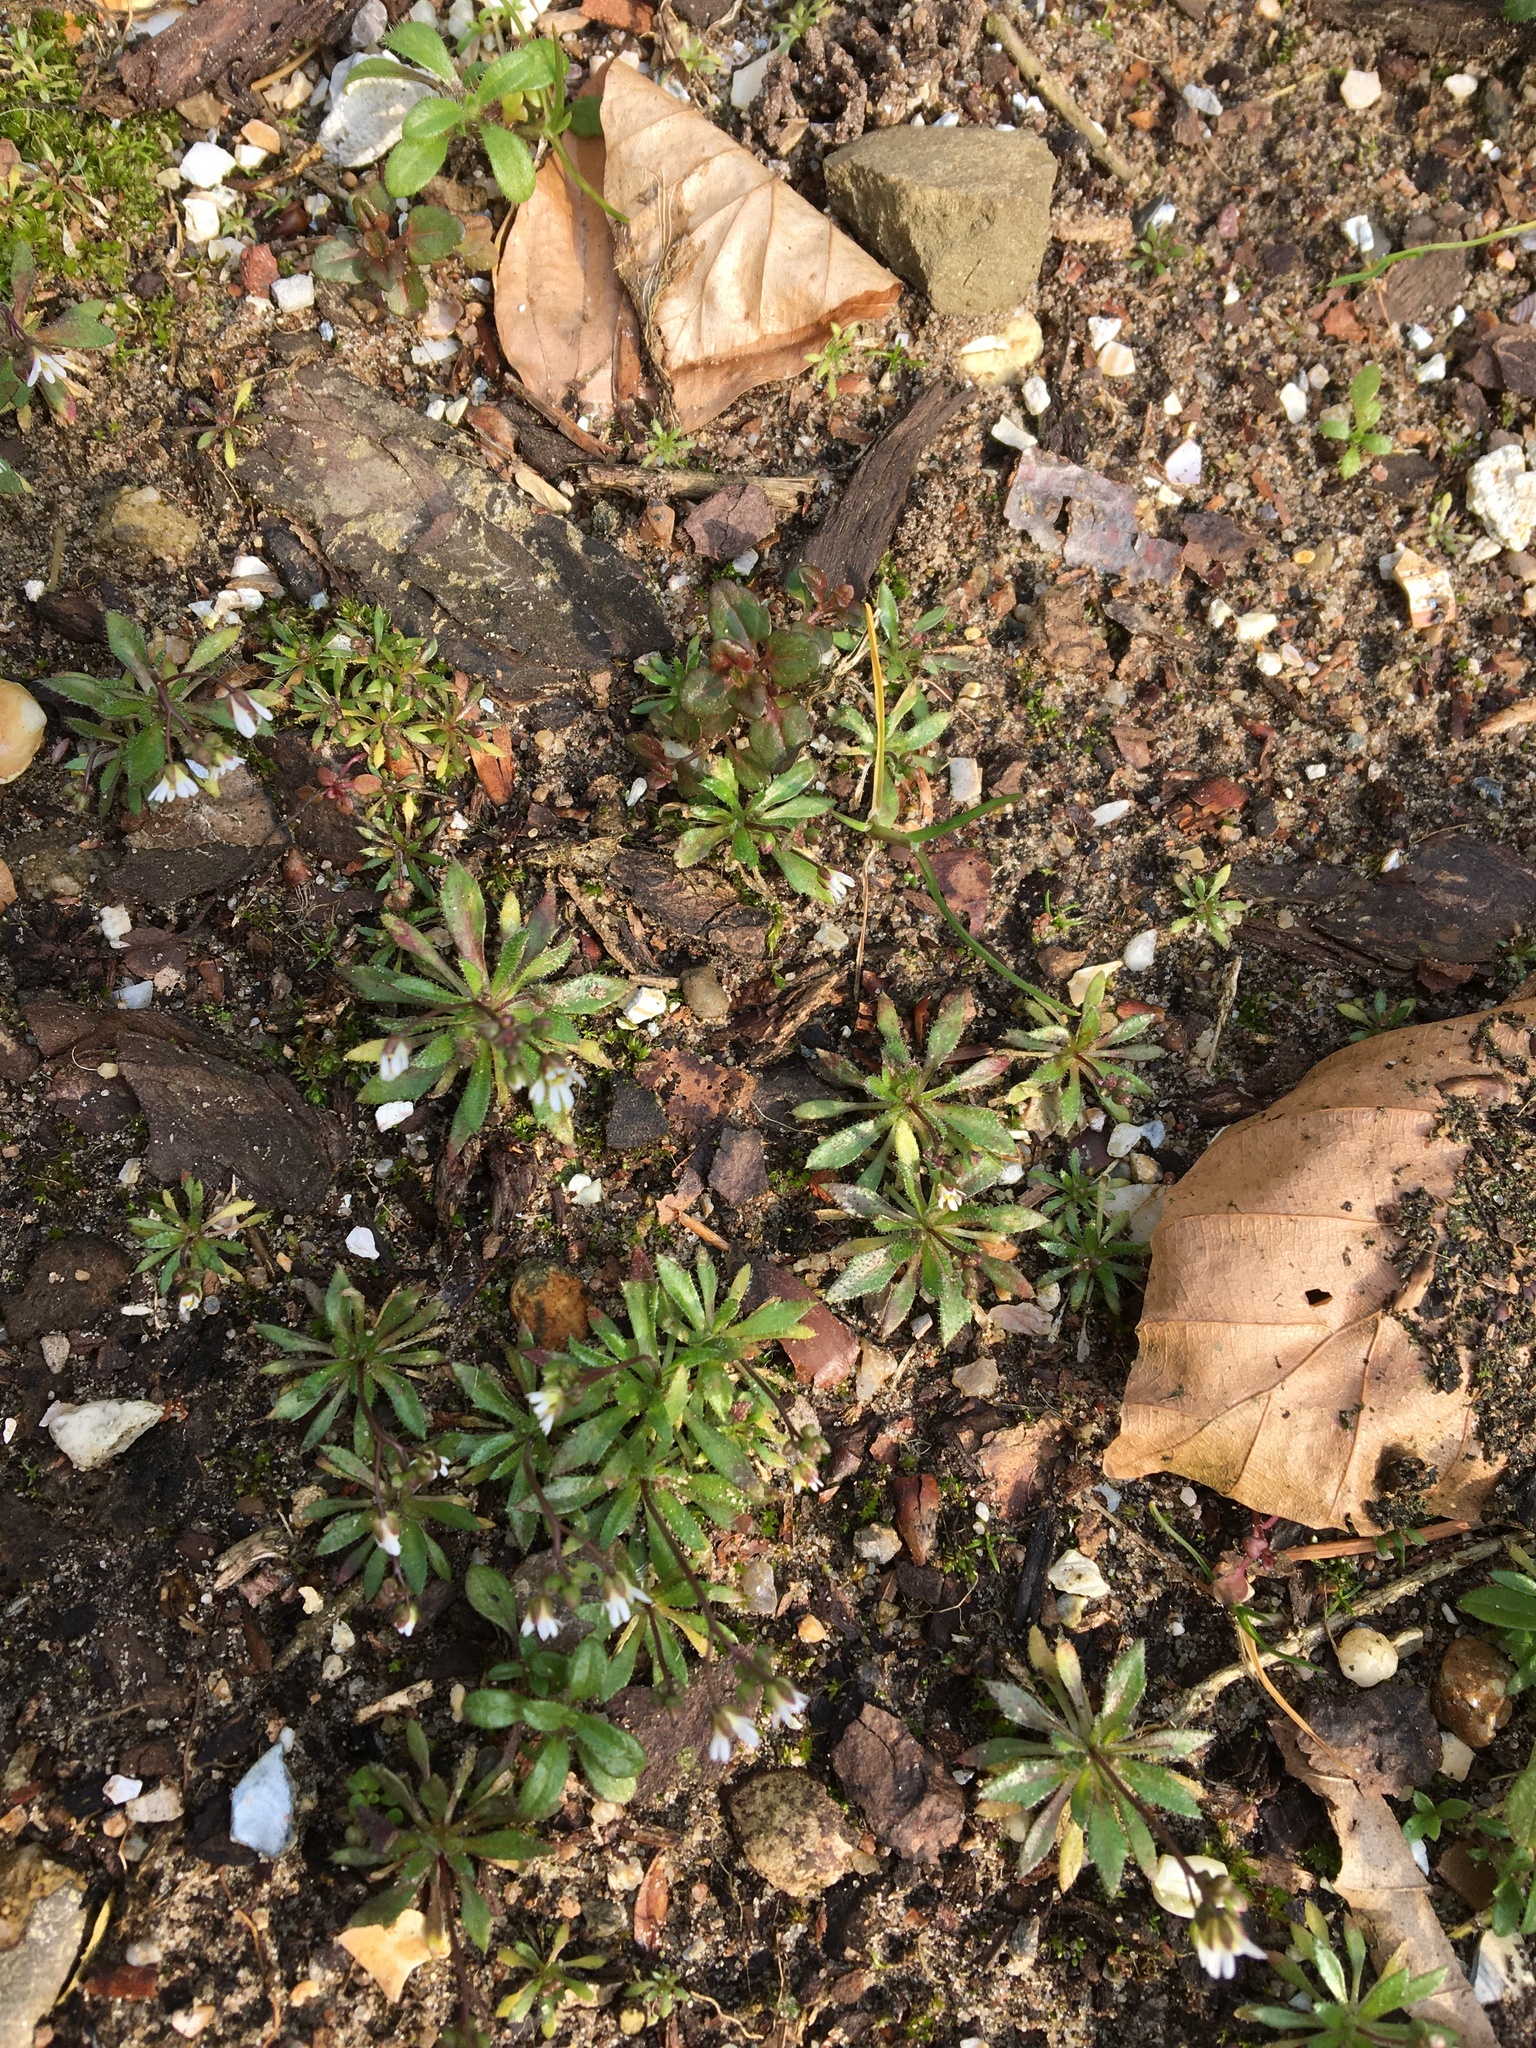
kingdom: Plantae
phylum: Tracheophyta
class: Magnoliopsida
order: Brassicales
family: Brassicaceae
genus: Draba
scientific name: Draba verna
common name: Spring draba
